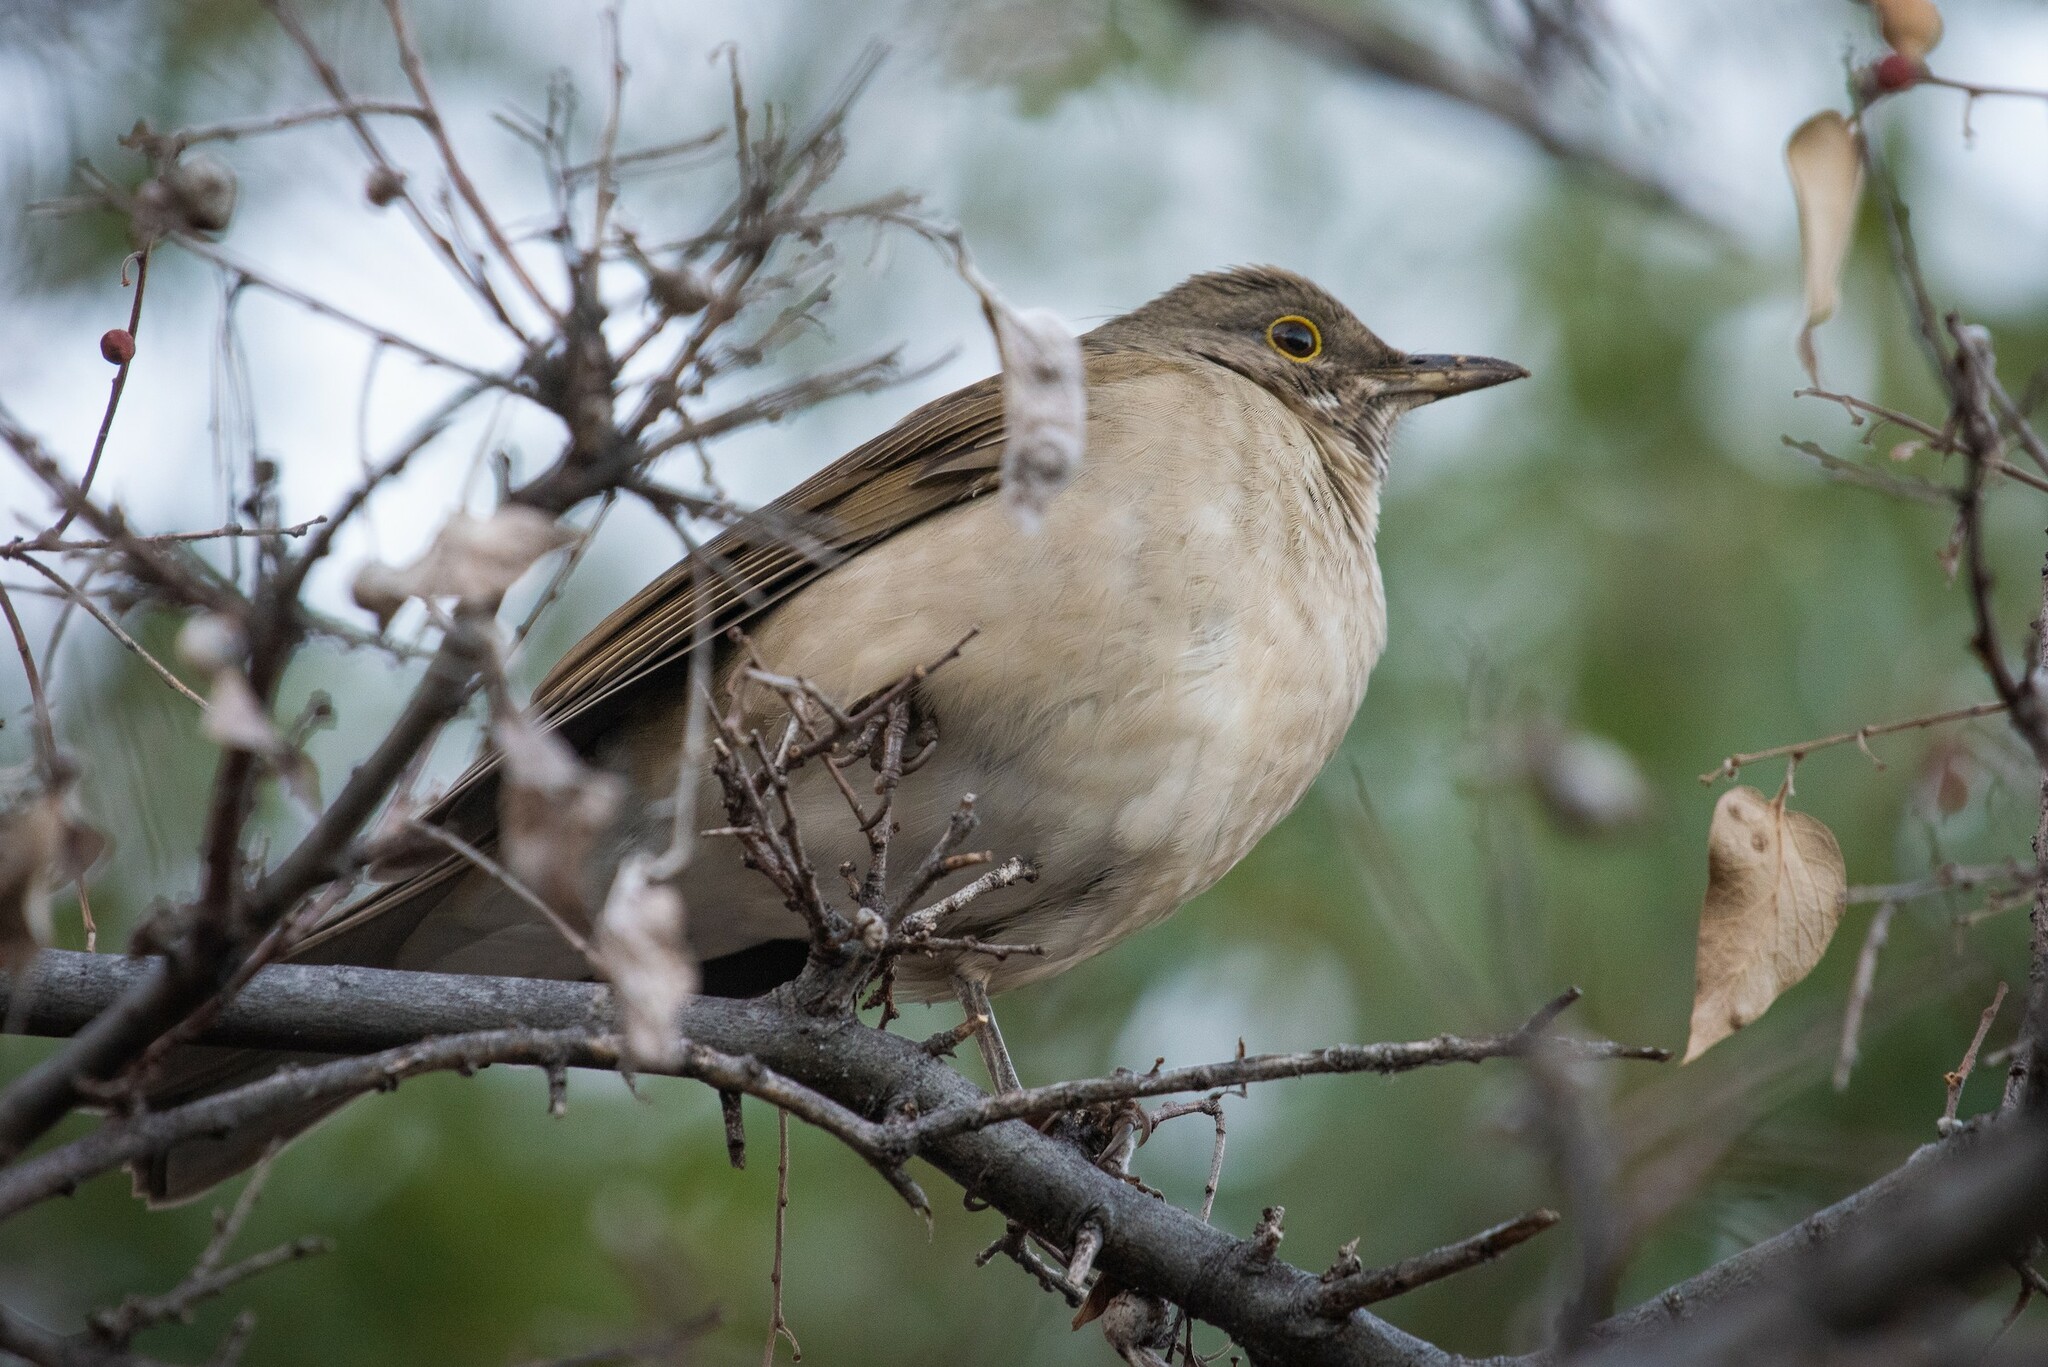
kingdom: Animalia
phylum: Chordata
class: Aves
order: Passeriformes
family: Turdidae
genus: Turdus
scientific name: Turdus assimilis
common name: White-throated thrush
